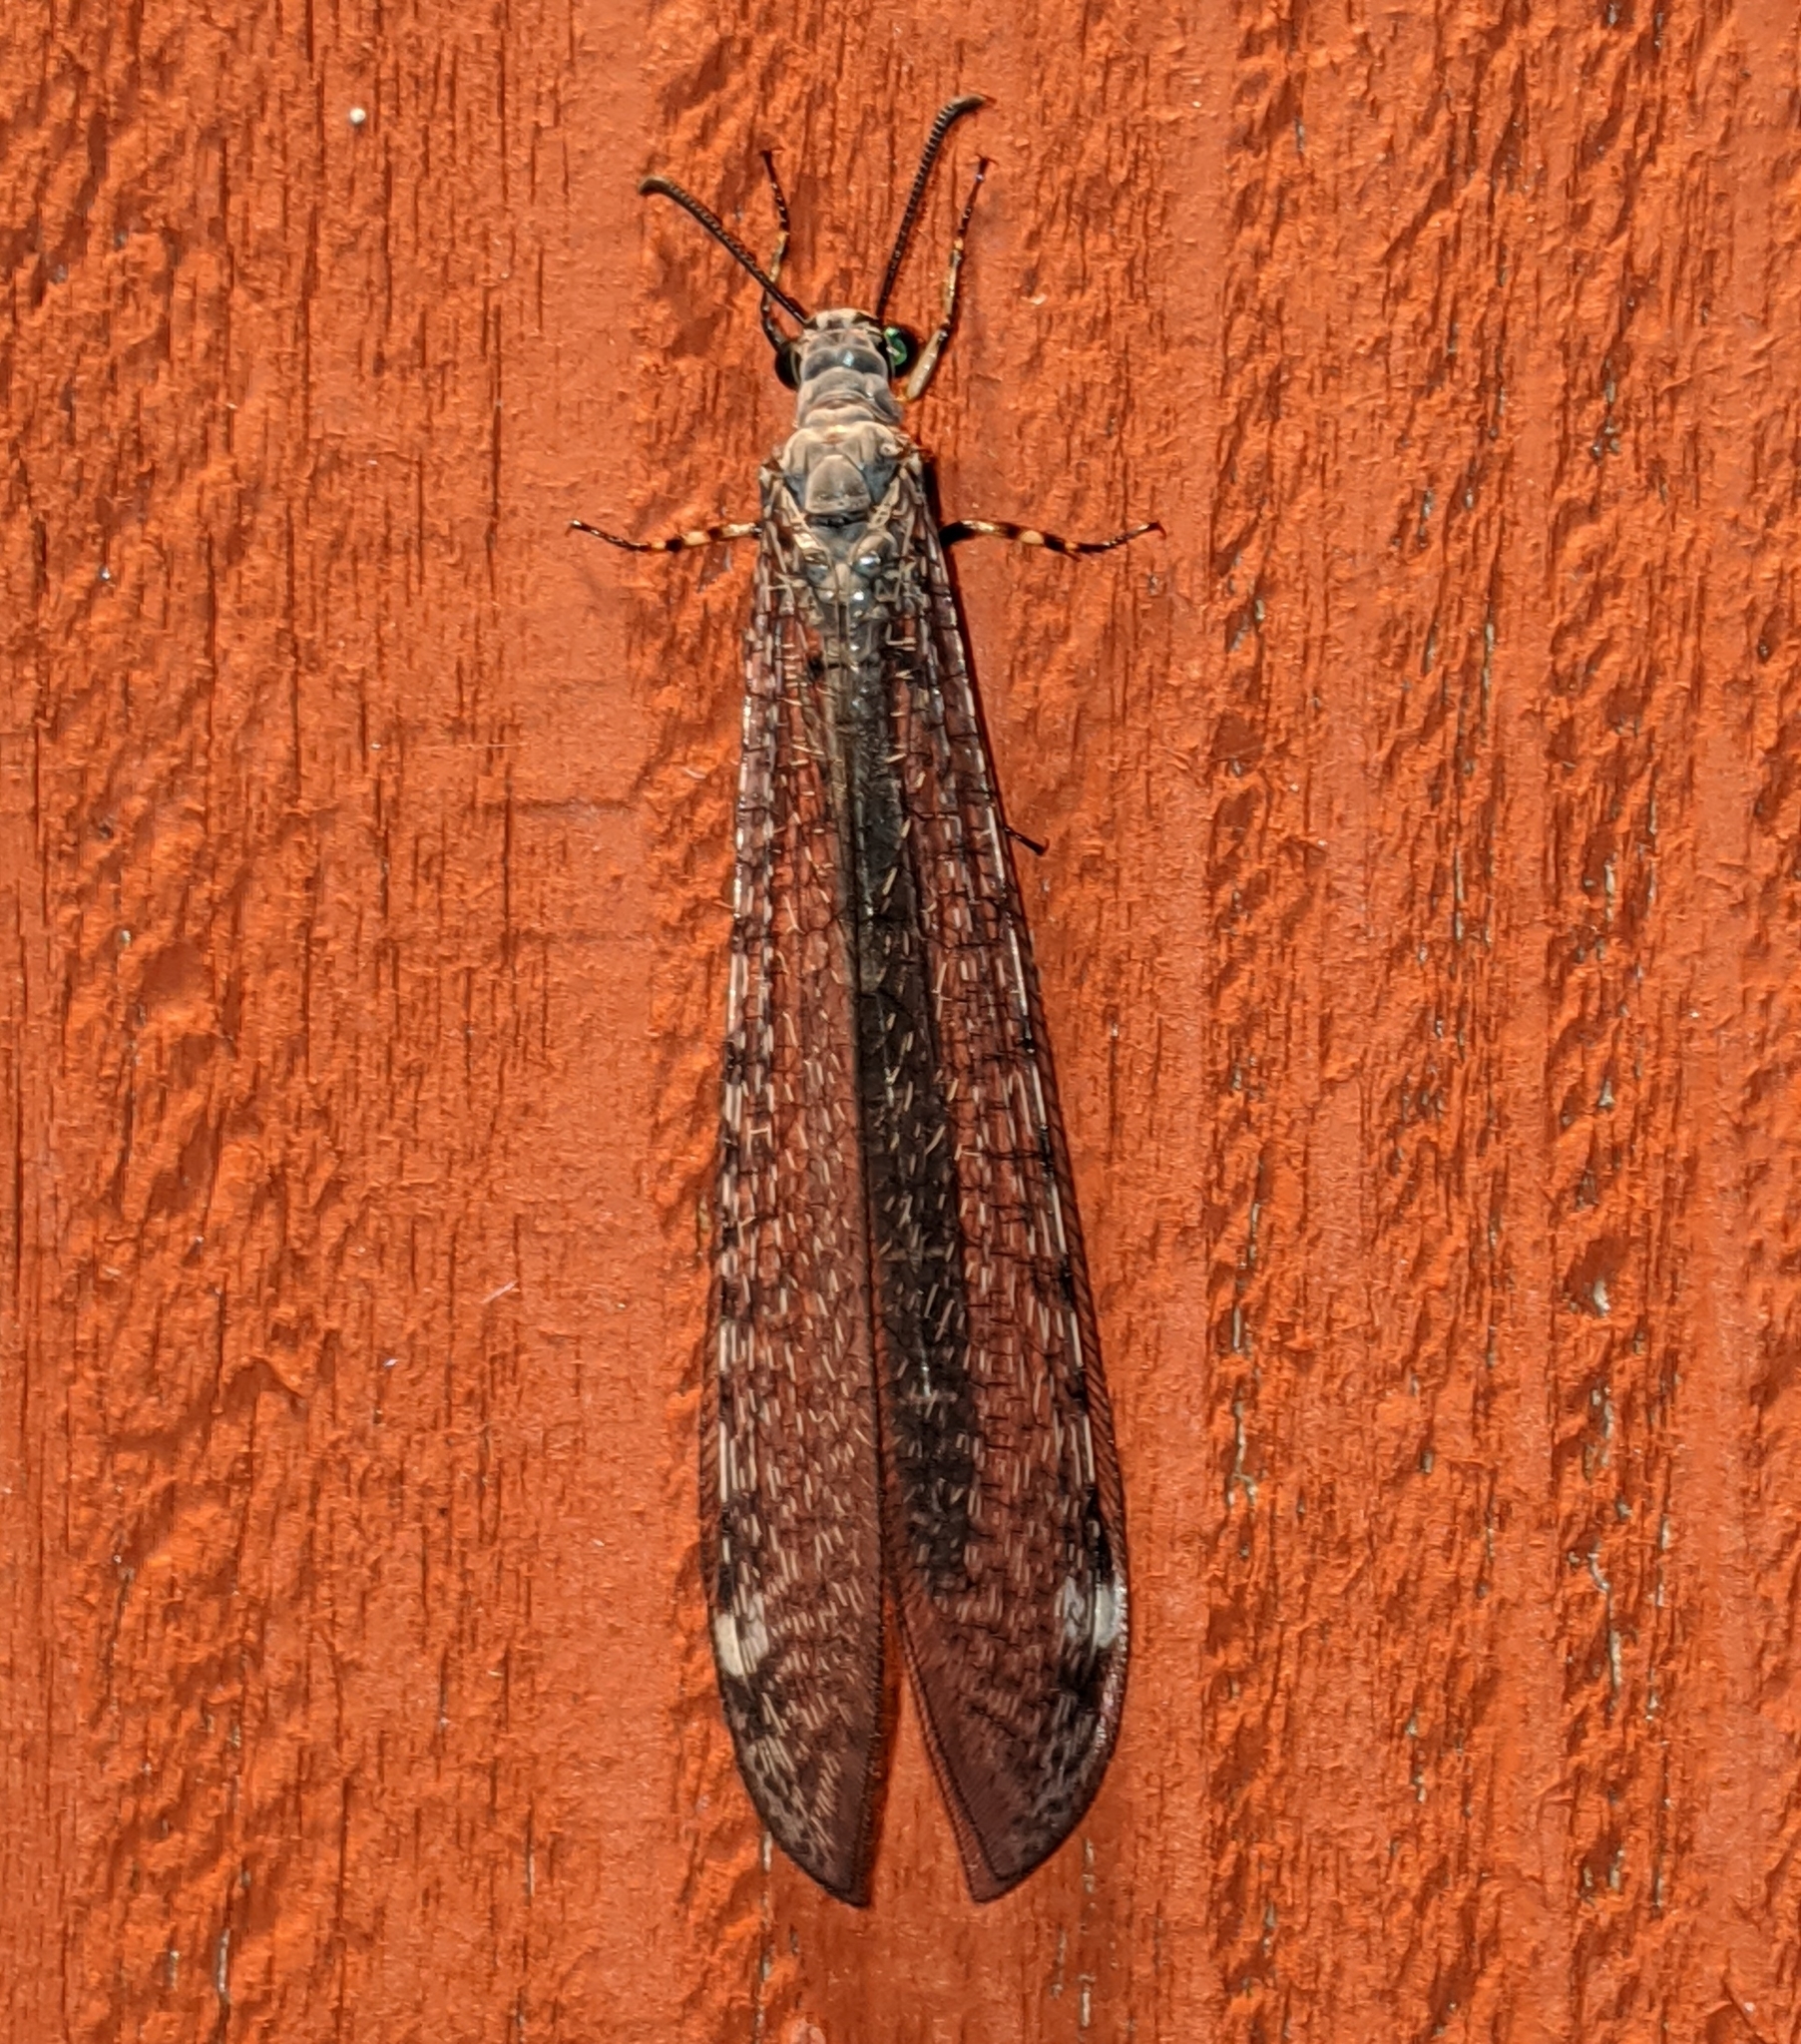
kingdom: Animalia
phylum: Arthropoda
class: Insecta
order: Neuroptera
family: Myrmeleontidae
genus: Myrmeleon
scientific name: Myrmeleon exitialis
